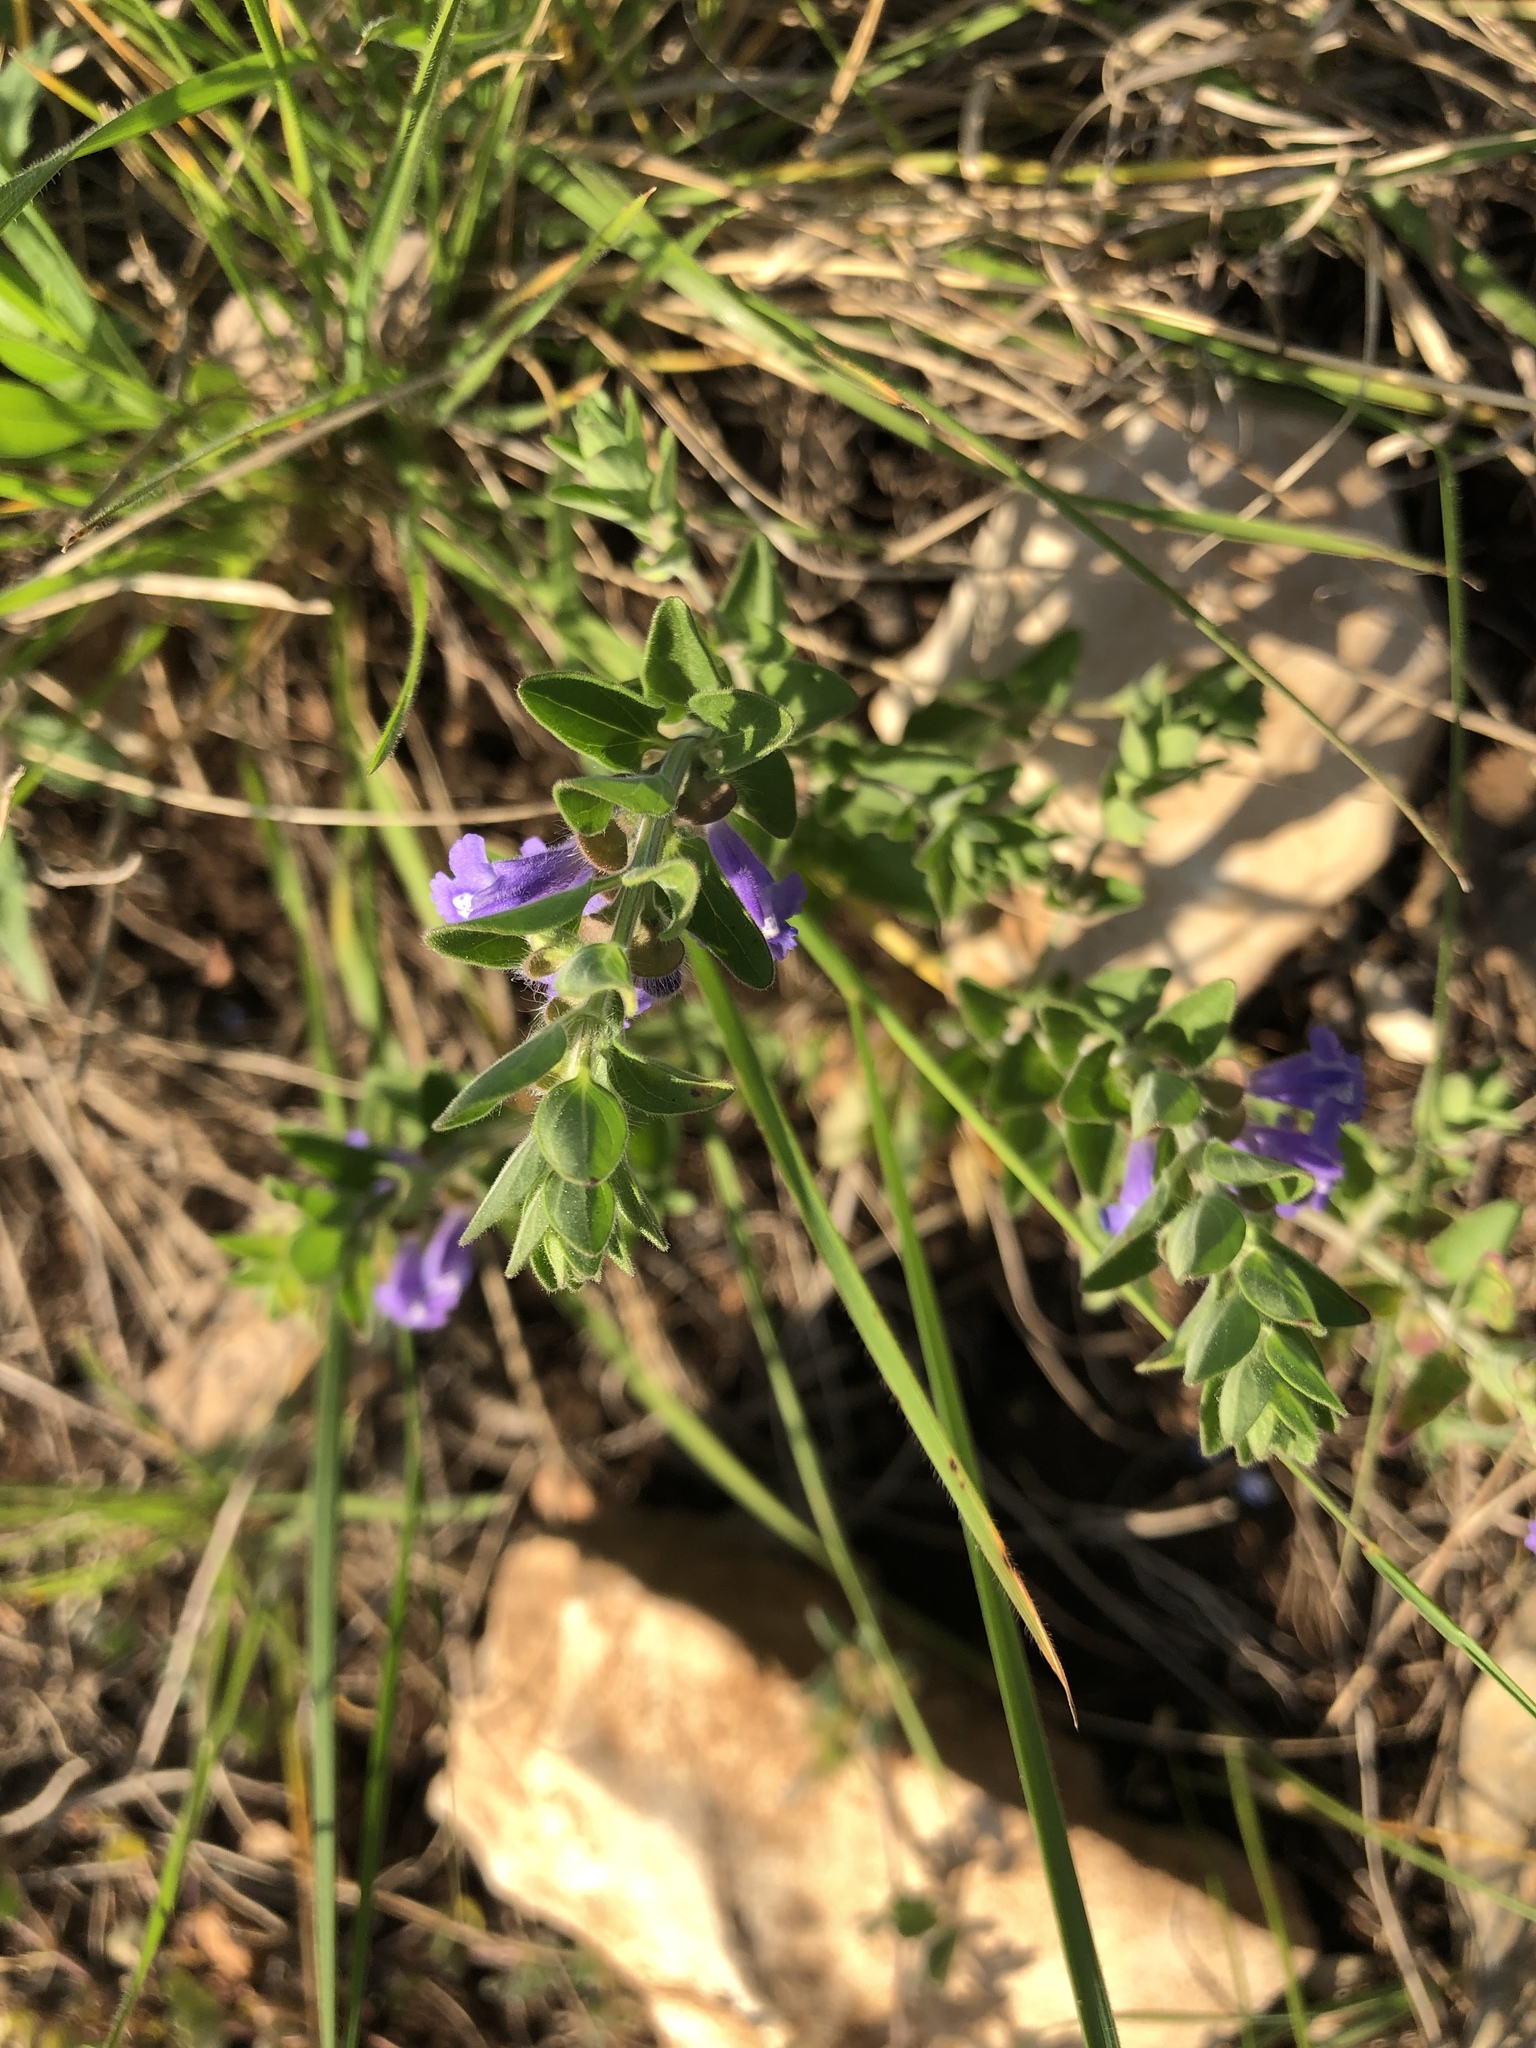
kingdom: Plantae
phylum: Tracheophyta
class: Magnoliopsida
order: Lamiales
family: Lamiaceae
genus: Scutellaria
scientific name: Scutellaria drummondii
